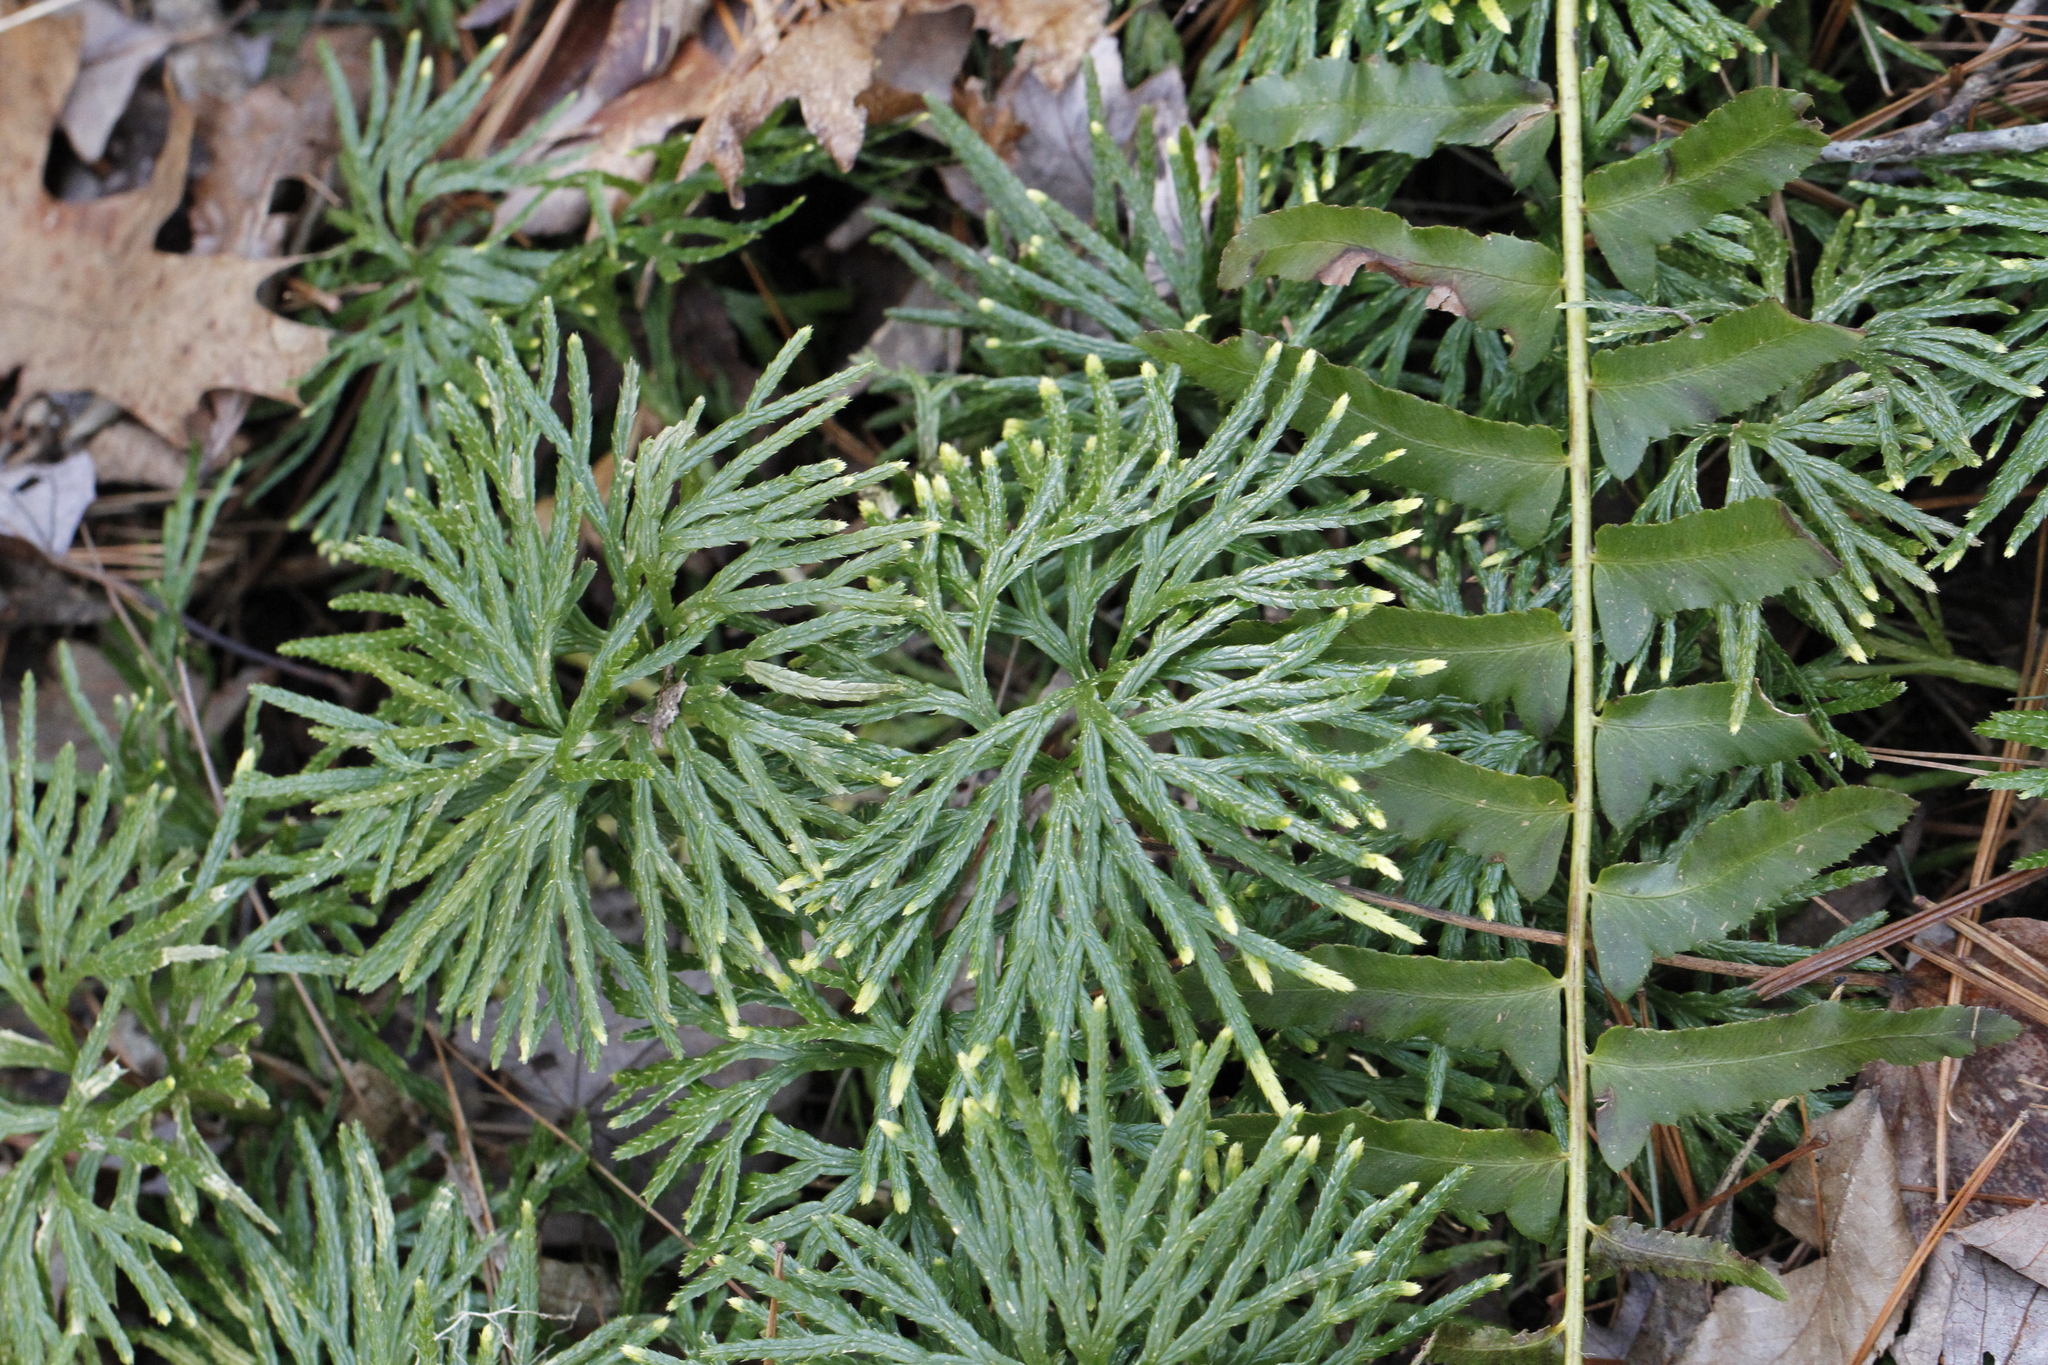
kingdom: Plantae
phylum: Tracheophyta
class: Lycopodiopsida
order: Lycopodiales
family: Lycopodiaceae
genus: Diphasiastrum
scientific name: Diphasiastrum digitatum
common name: Southern running-pine
